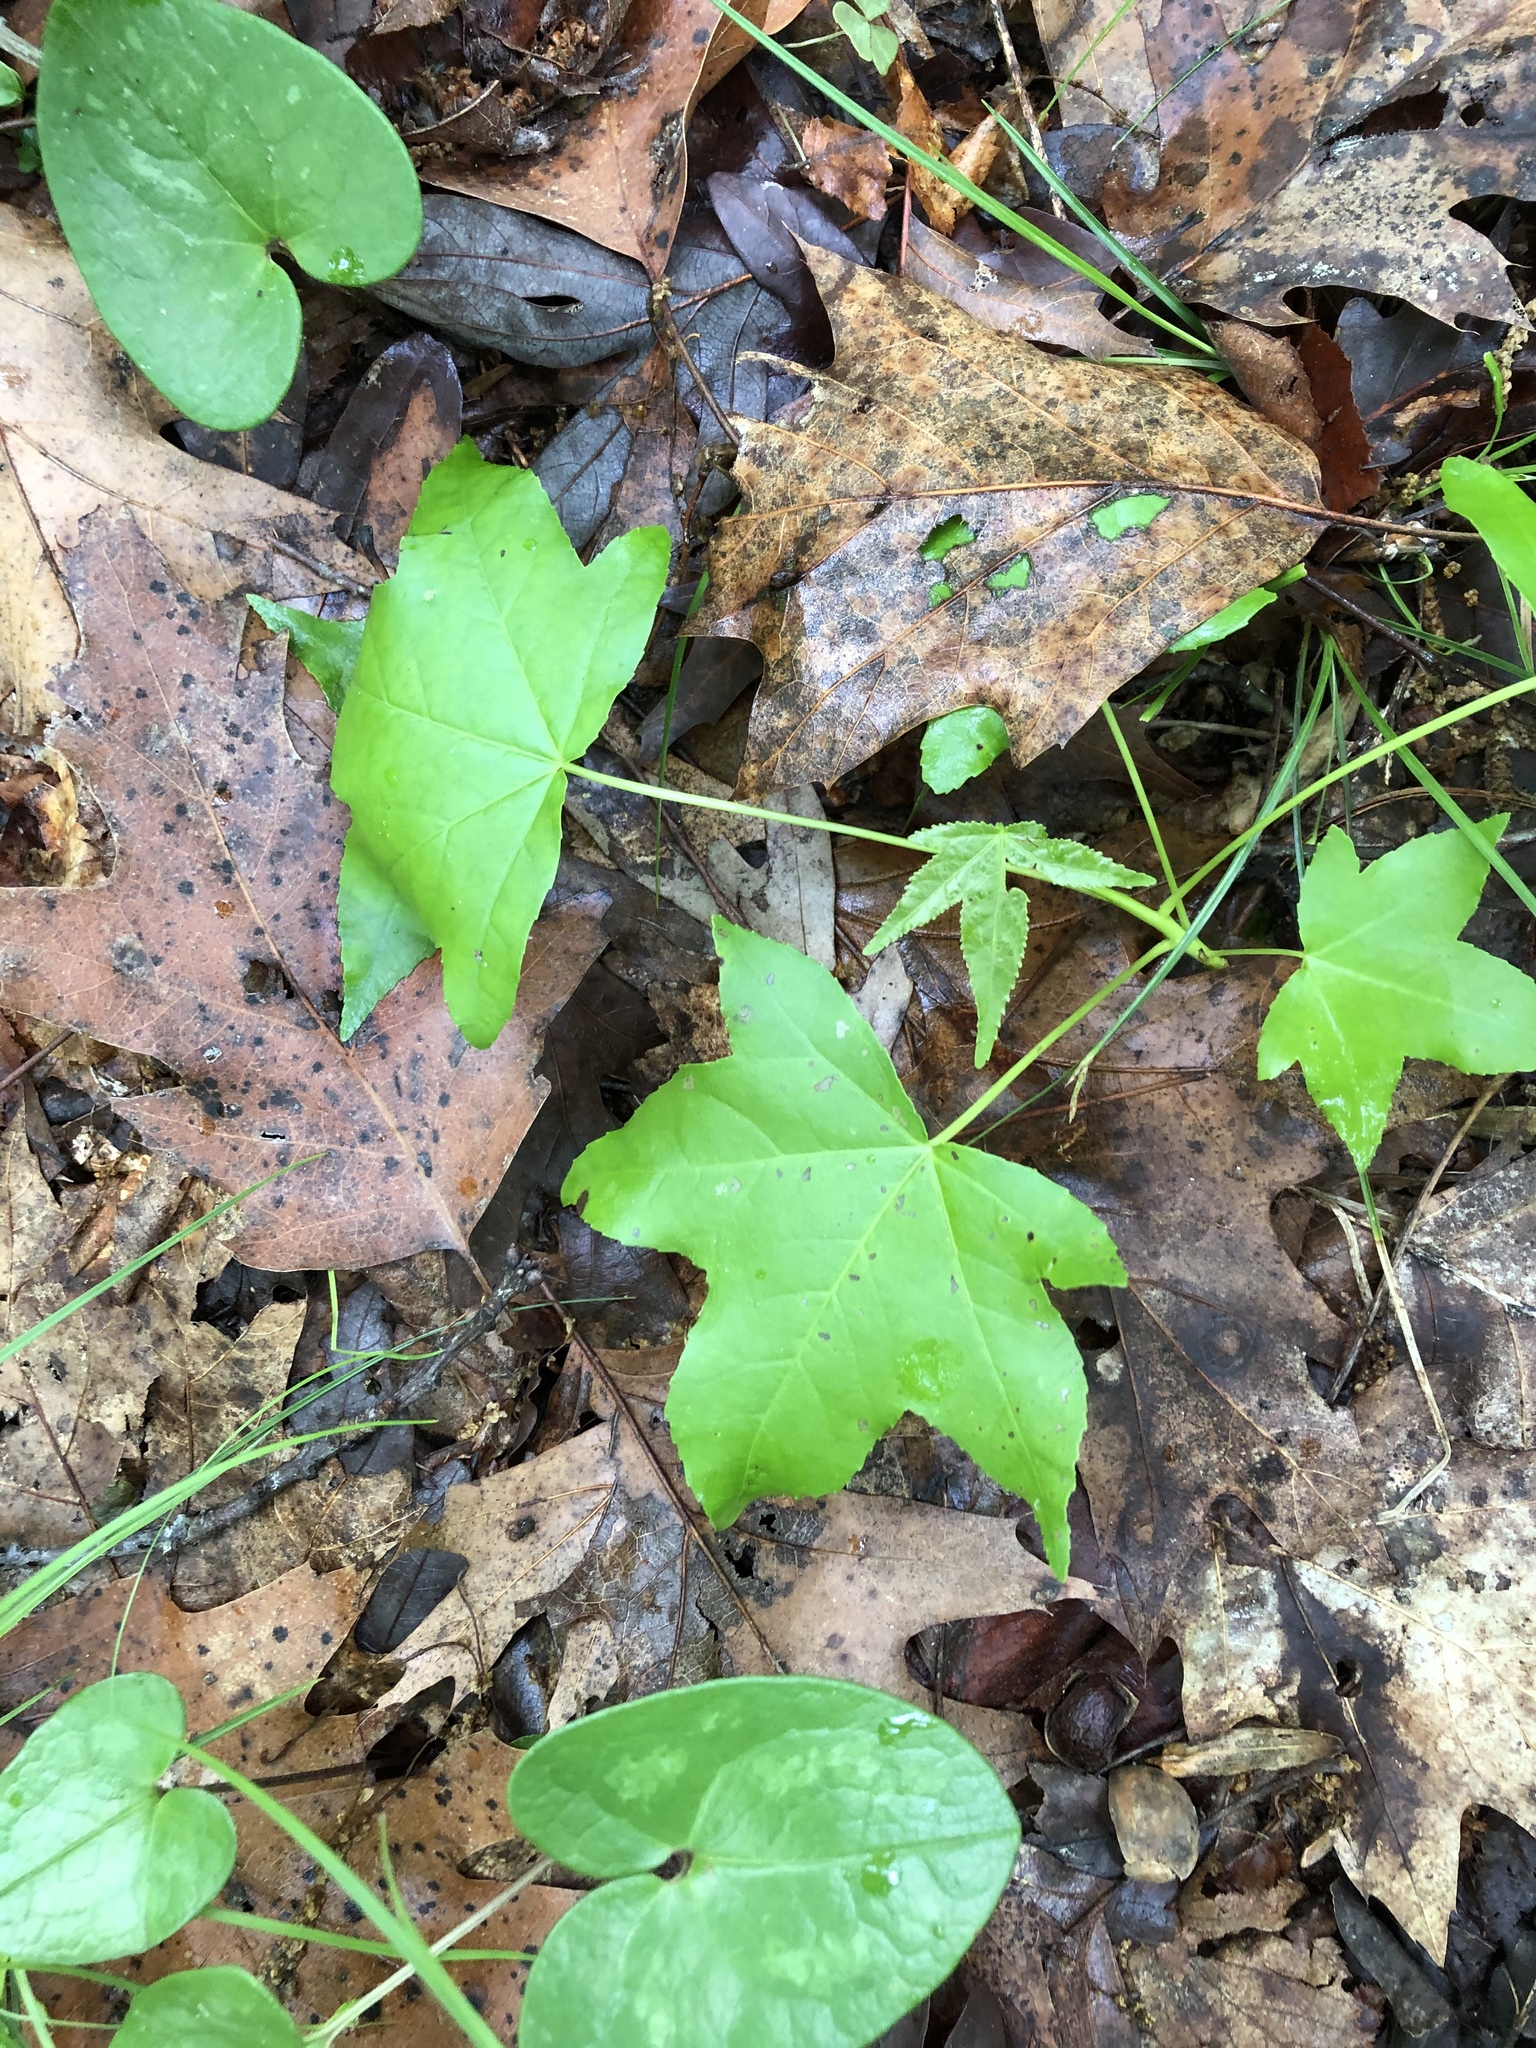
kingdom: Plantae
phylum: Tracheophyta
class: Magnoliopsida
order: Saxifragales
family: Altingiaceae
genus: Liquidambar
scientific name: Liquidambar styraciflua
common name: Sweet gum
